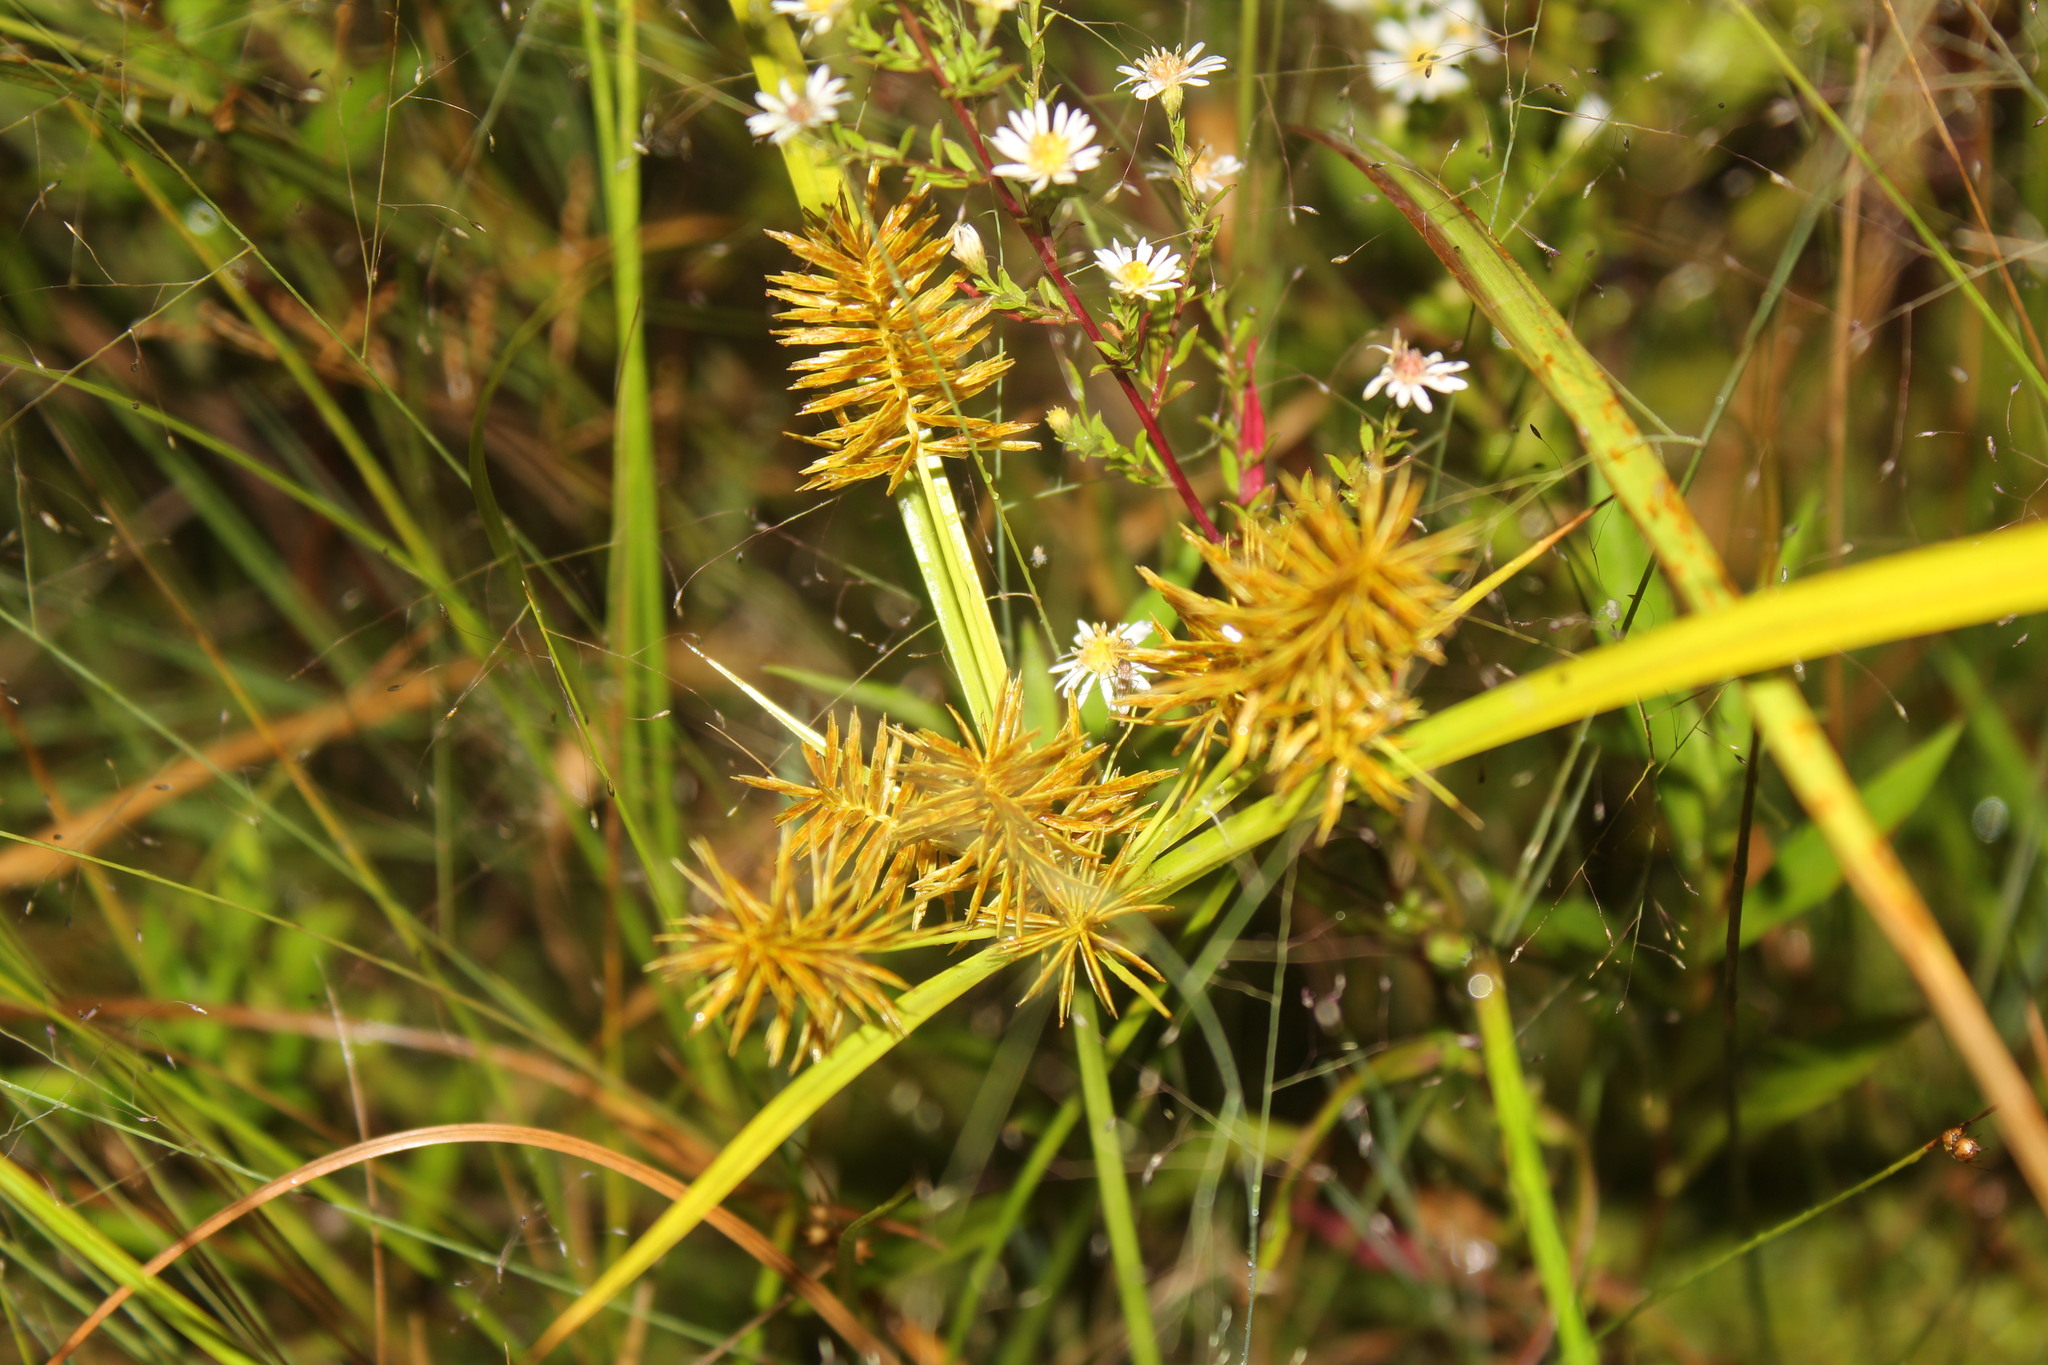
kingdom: Plantae
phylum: Tracheophyta
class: Liliopsida
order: Poales
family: Cyperaceae
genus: Cyperus
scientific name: Cyperus strigosus
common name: False nutsedge
